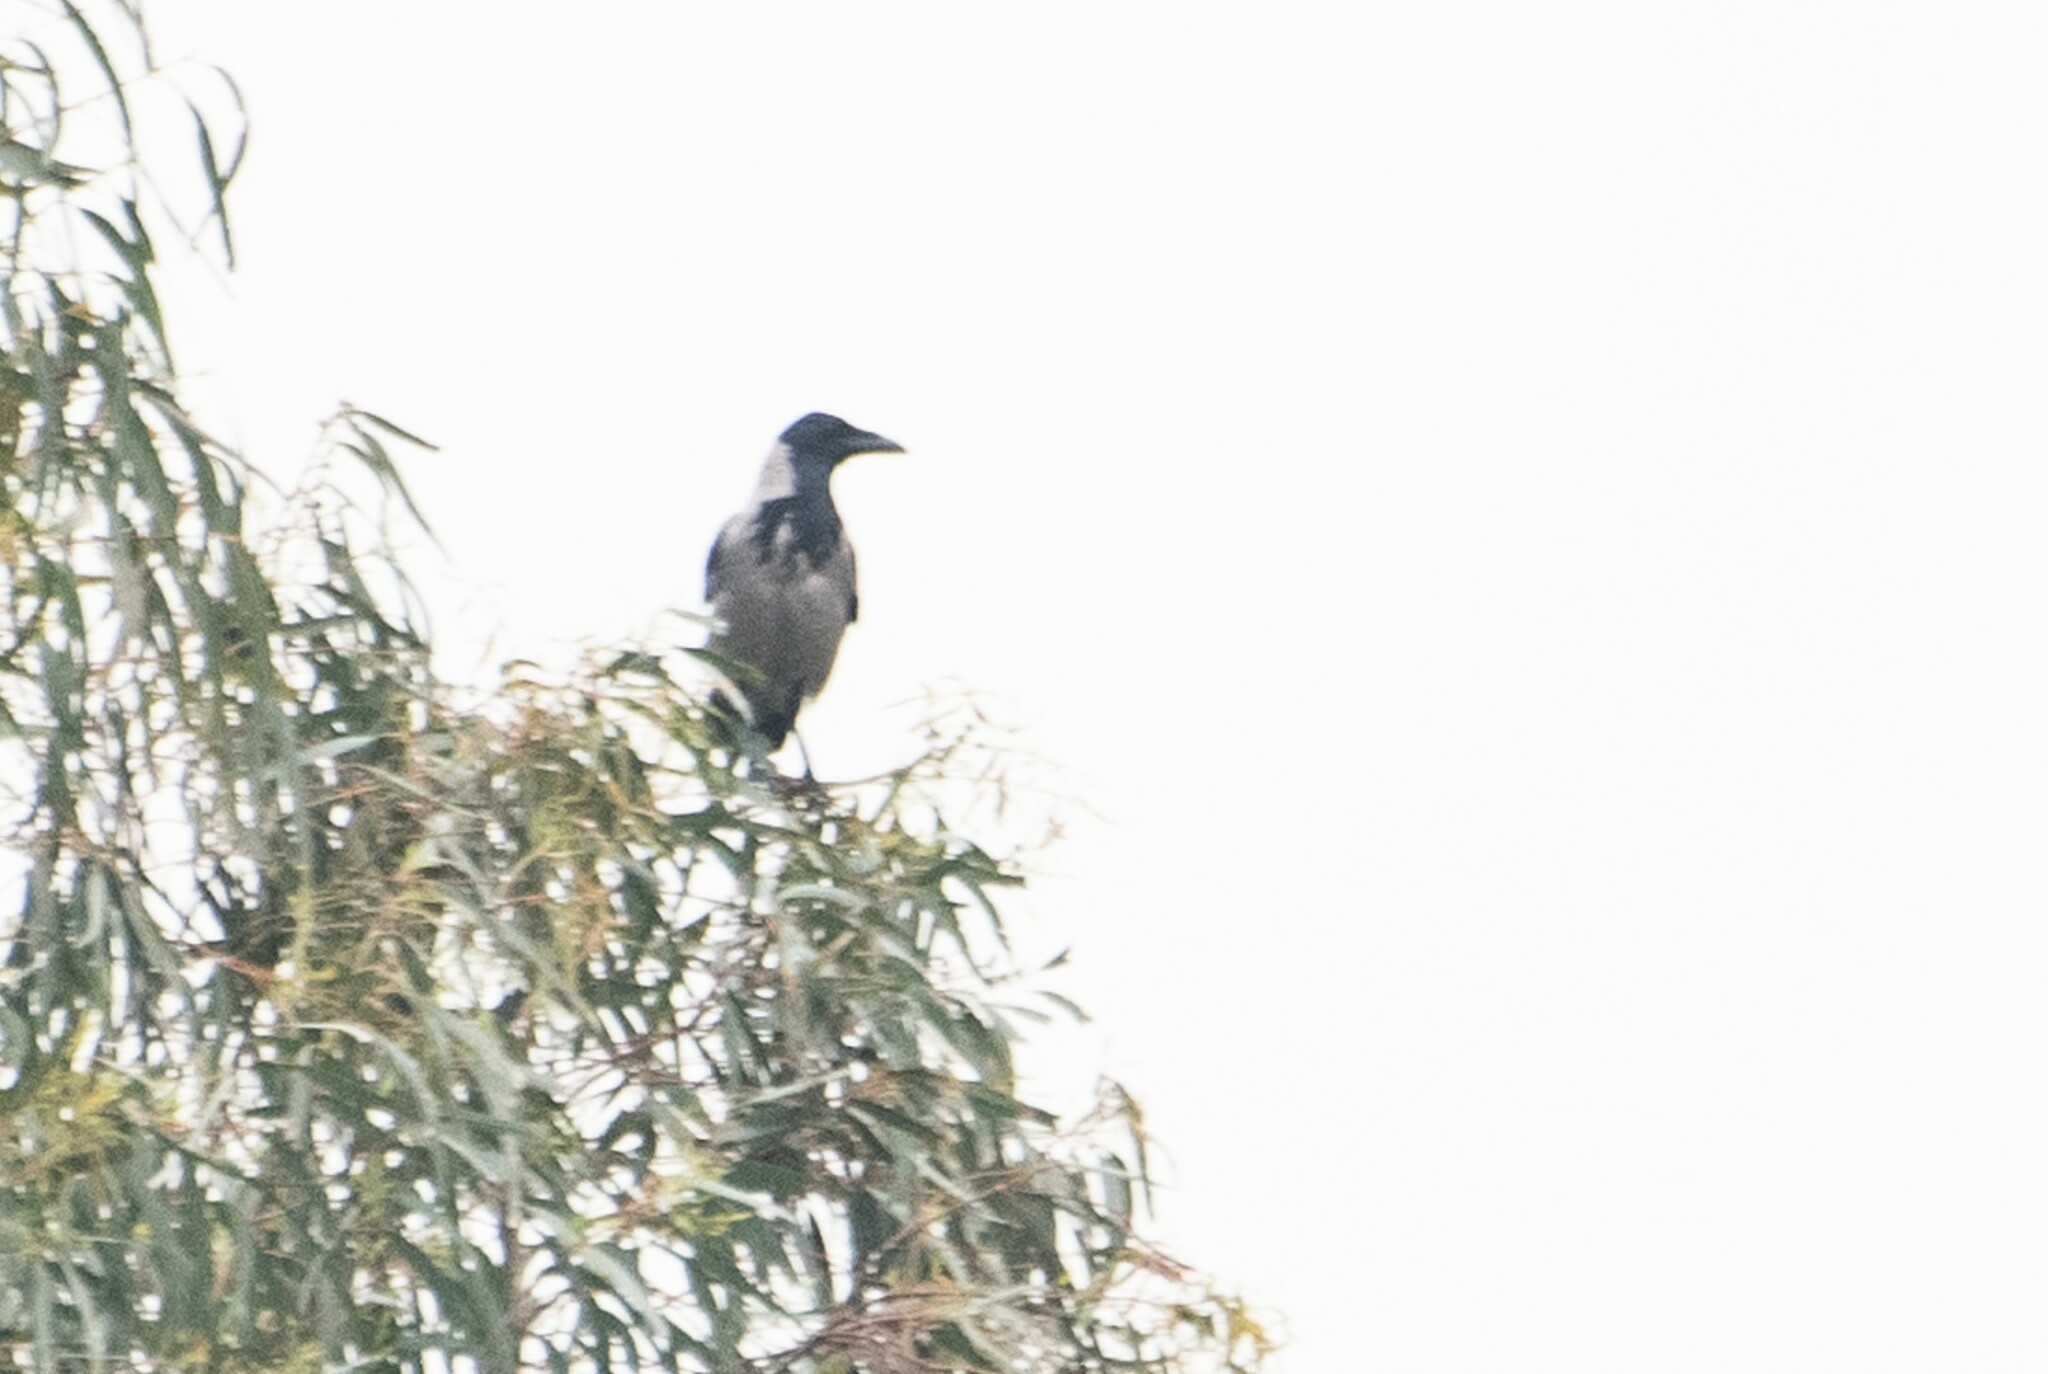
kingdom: Animalia
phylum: Chordata
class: Aves
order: Passeriformes
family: Corvidae
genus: Corvus
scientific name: Corvus cornix
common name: Hooded crow
